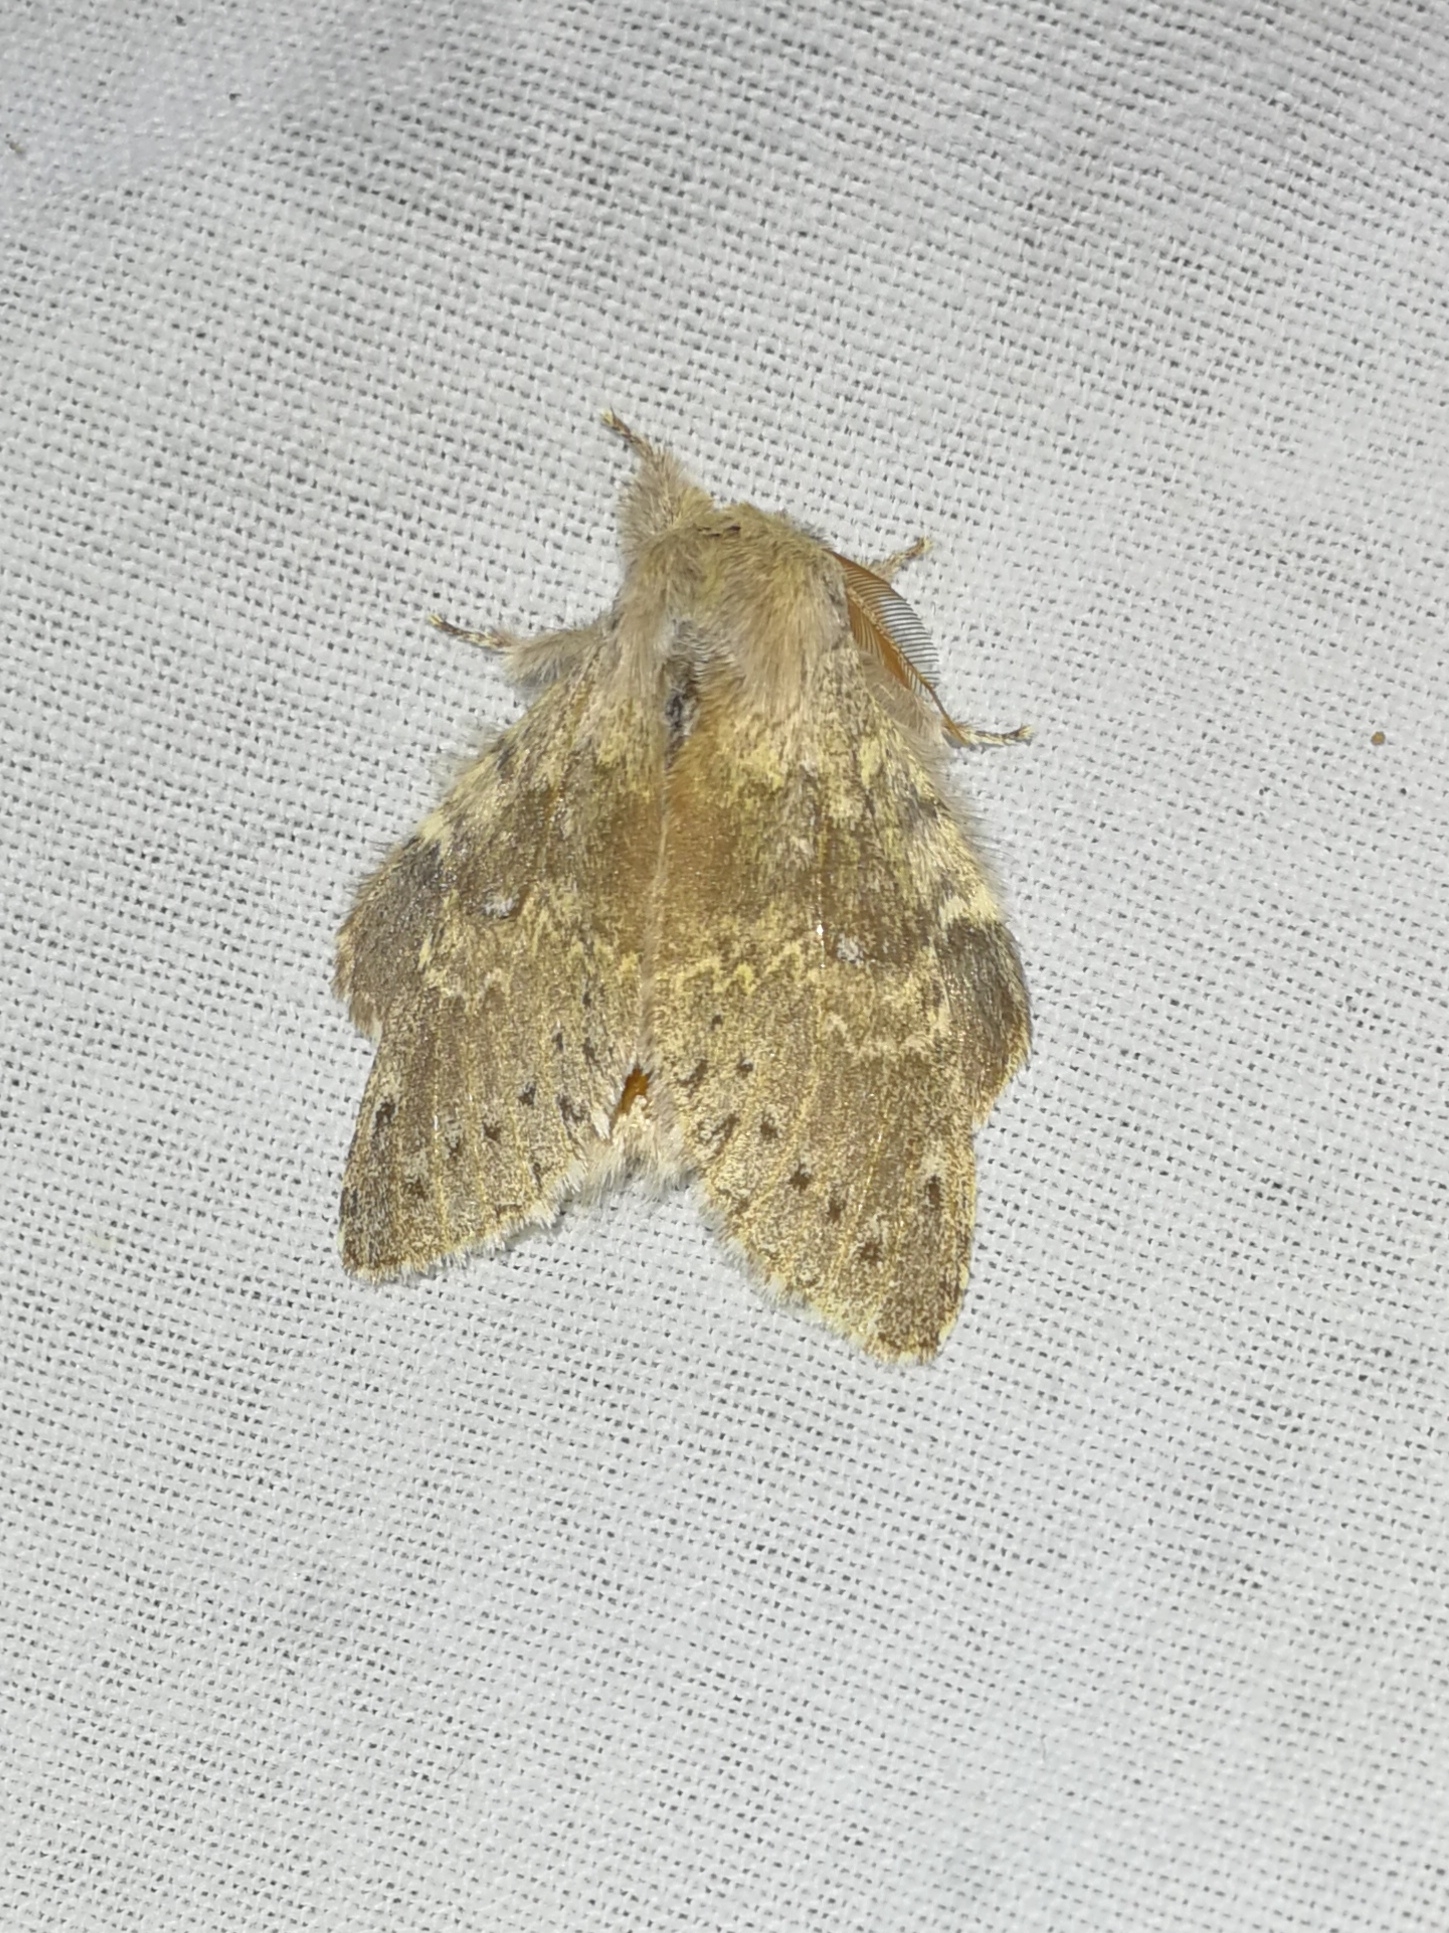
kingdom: Animalia
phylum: Arthropoda
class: Insecta
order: Lepidoptera
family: Notodontidae
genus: Stauropus
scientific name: Stauropus fagi
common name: Lobster moth
